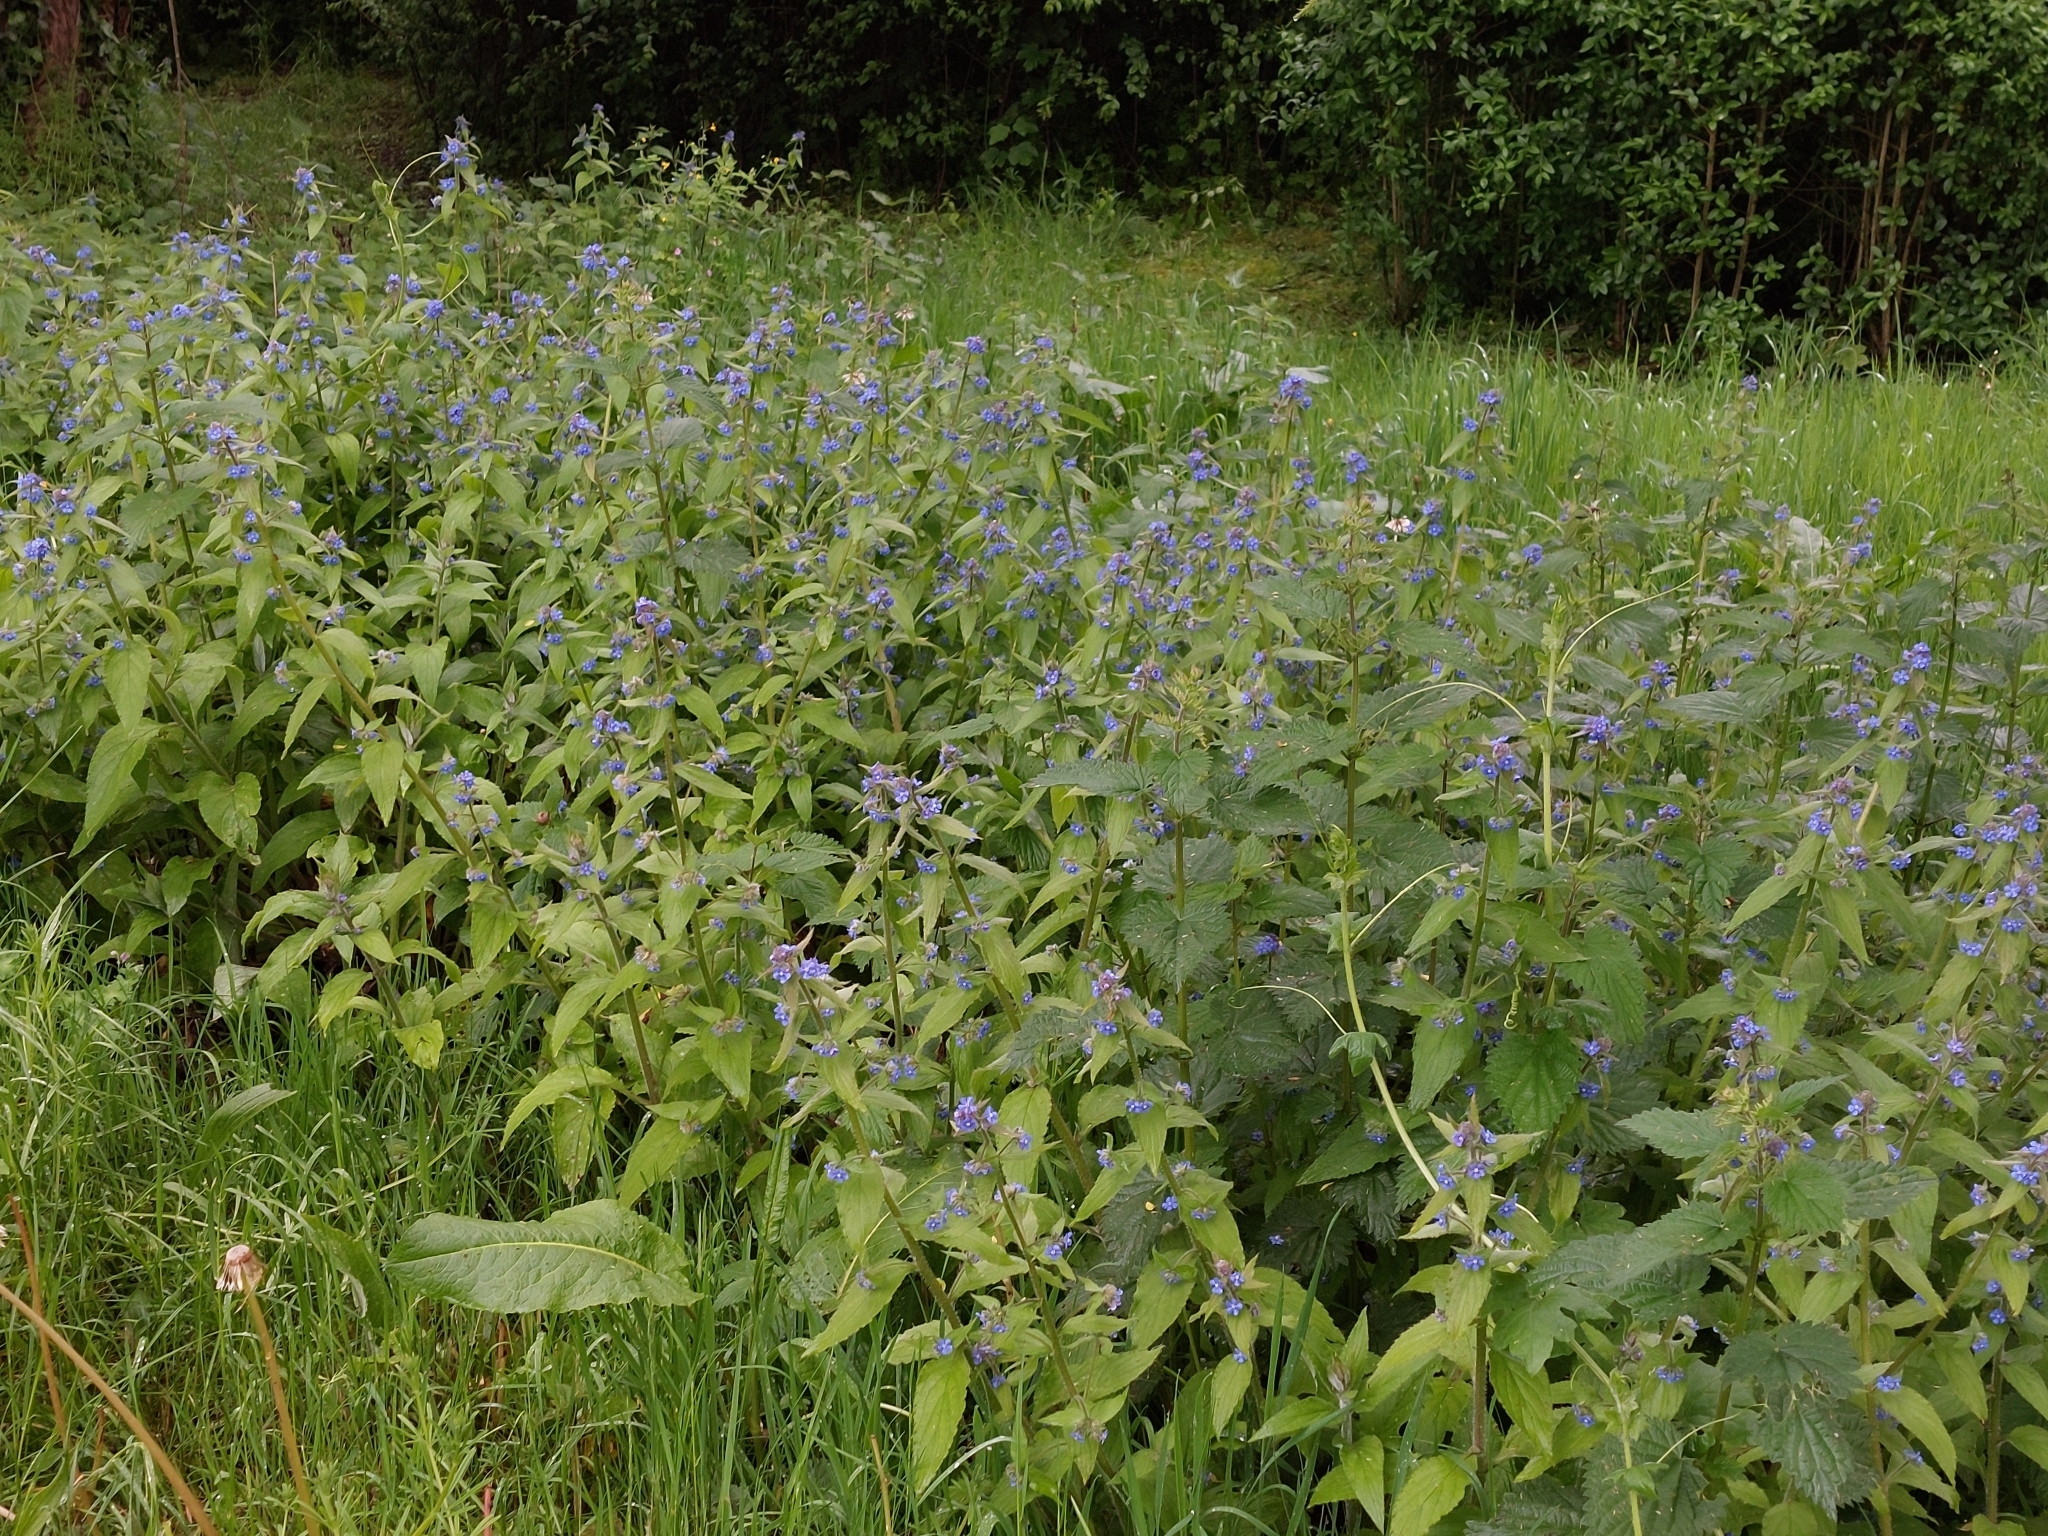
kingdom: Plantae
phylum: Tracheophyta
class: Magnoliopsida
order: Boraginales
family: Boraginaceae
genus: Pentaglottis
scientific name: Pentaglottis sempervirens
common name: Green alkanet
